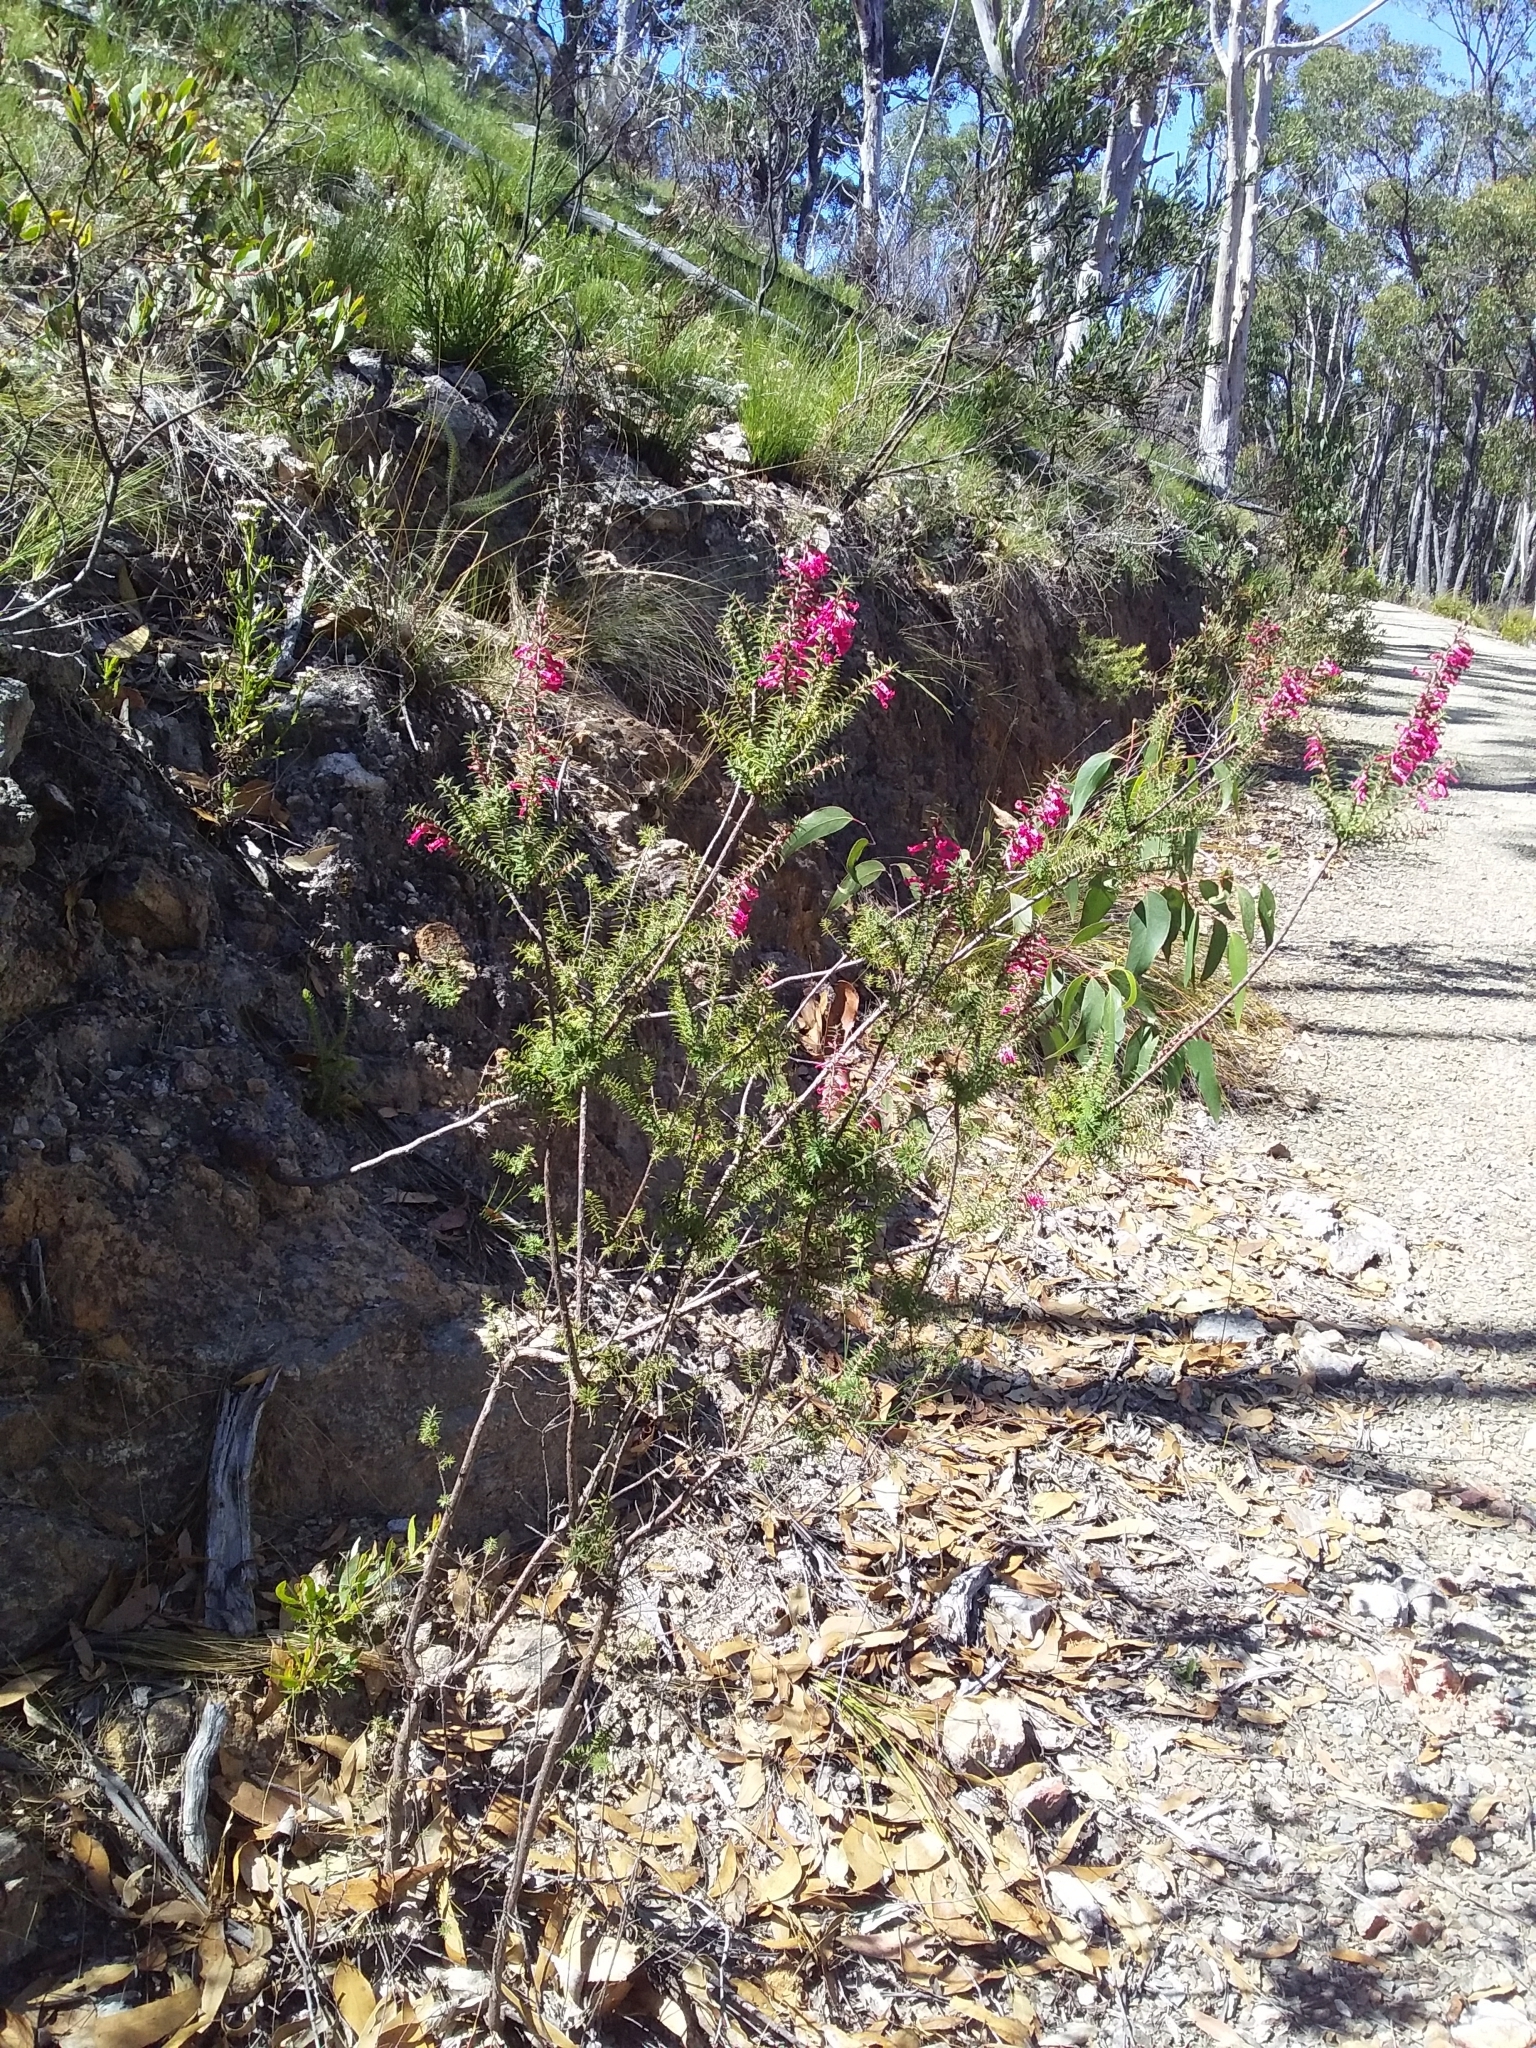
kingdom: Plantae
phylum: Tracheophyta
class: Magnoliopsida
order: Ericales
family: Ericaceae
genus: Epacris
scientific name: Epacris impressa
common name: Common-heath
